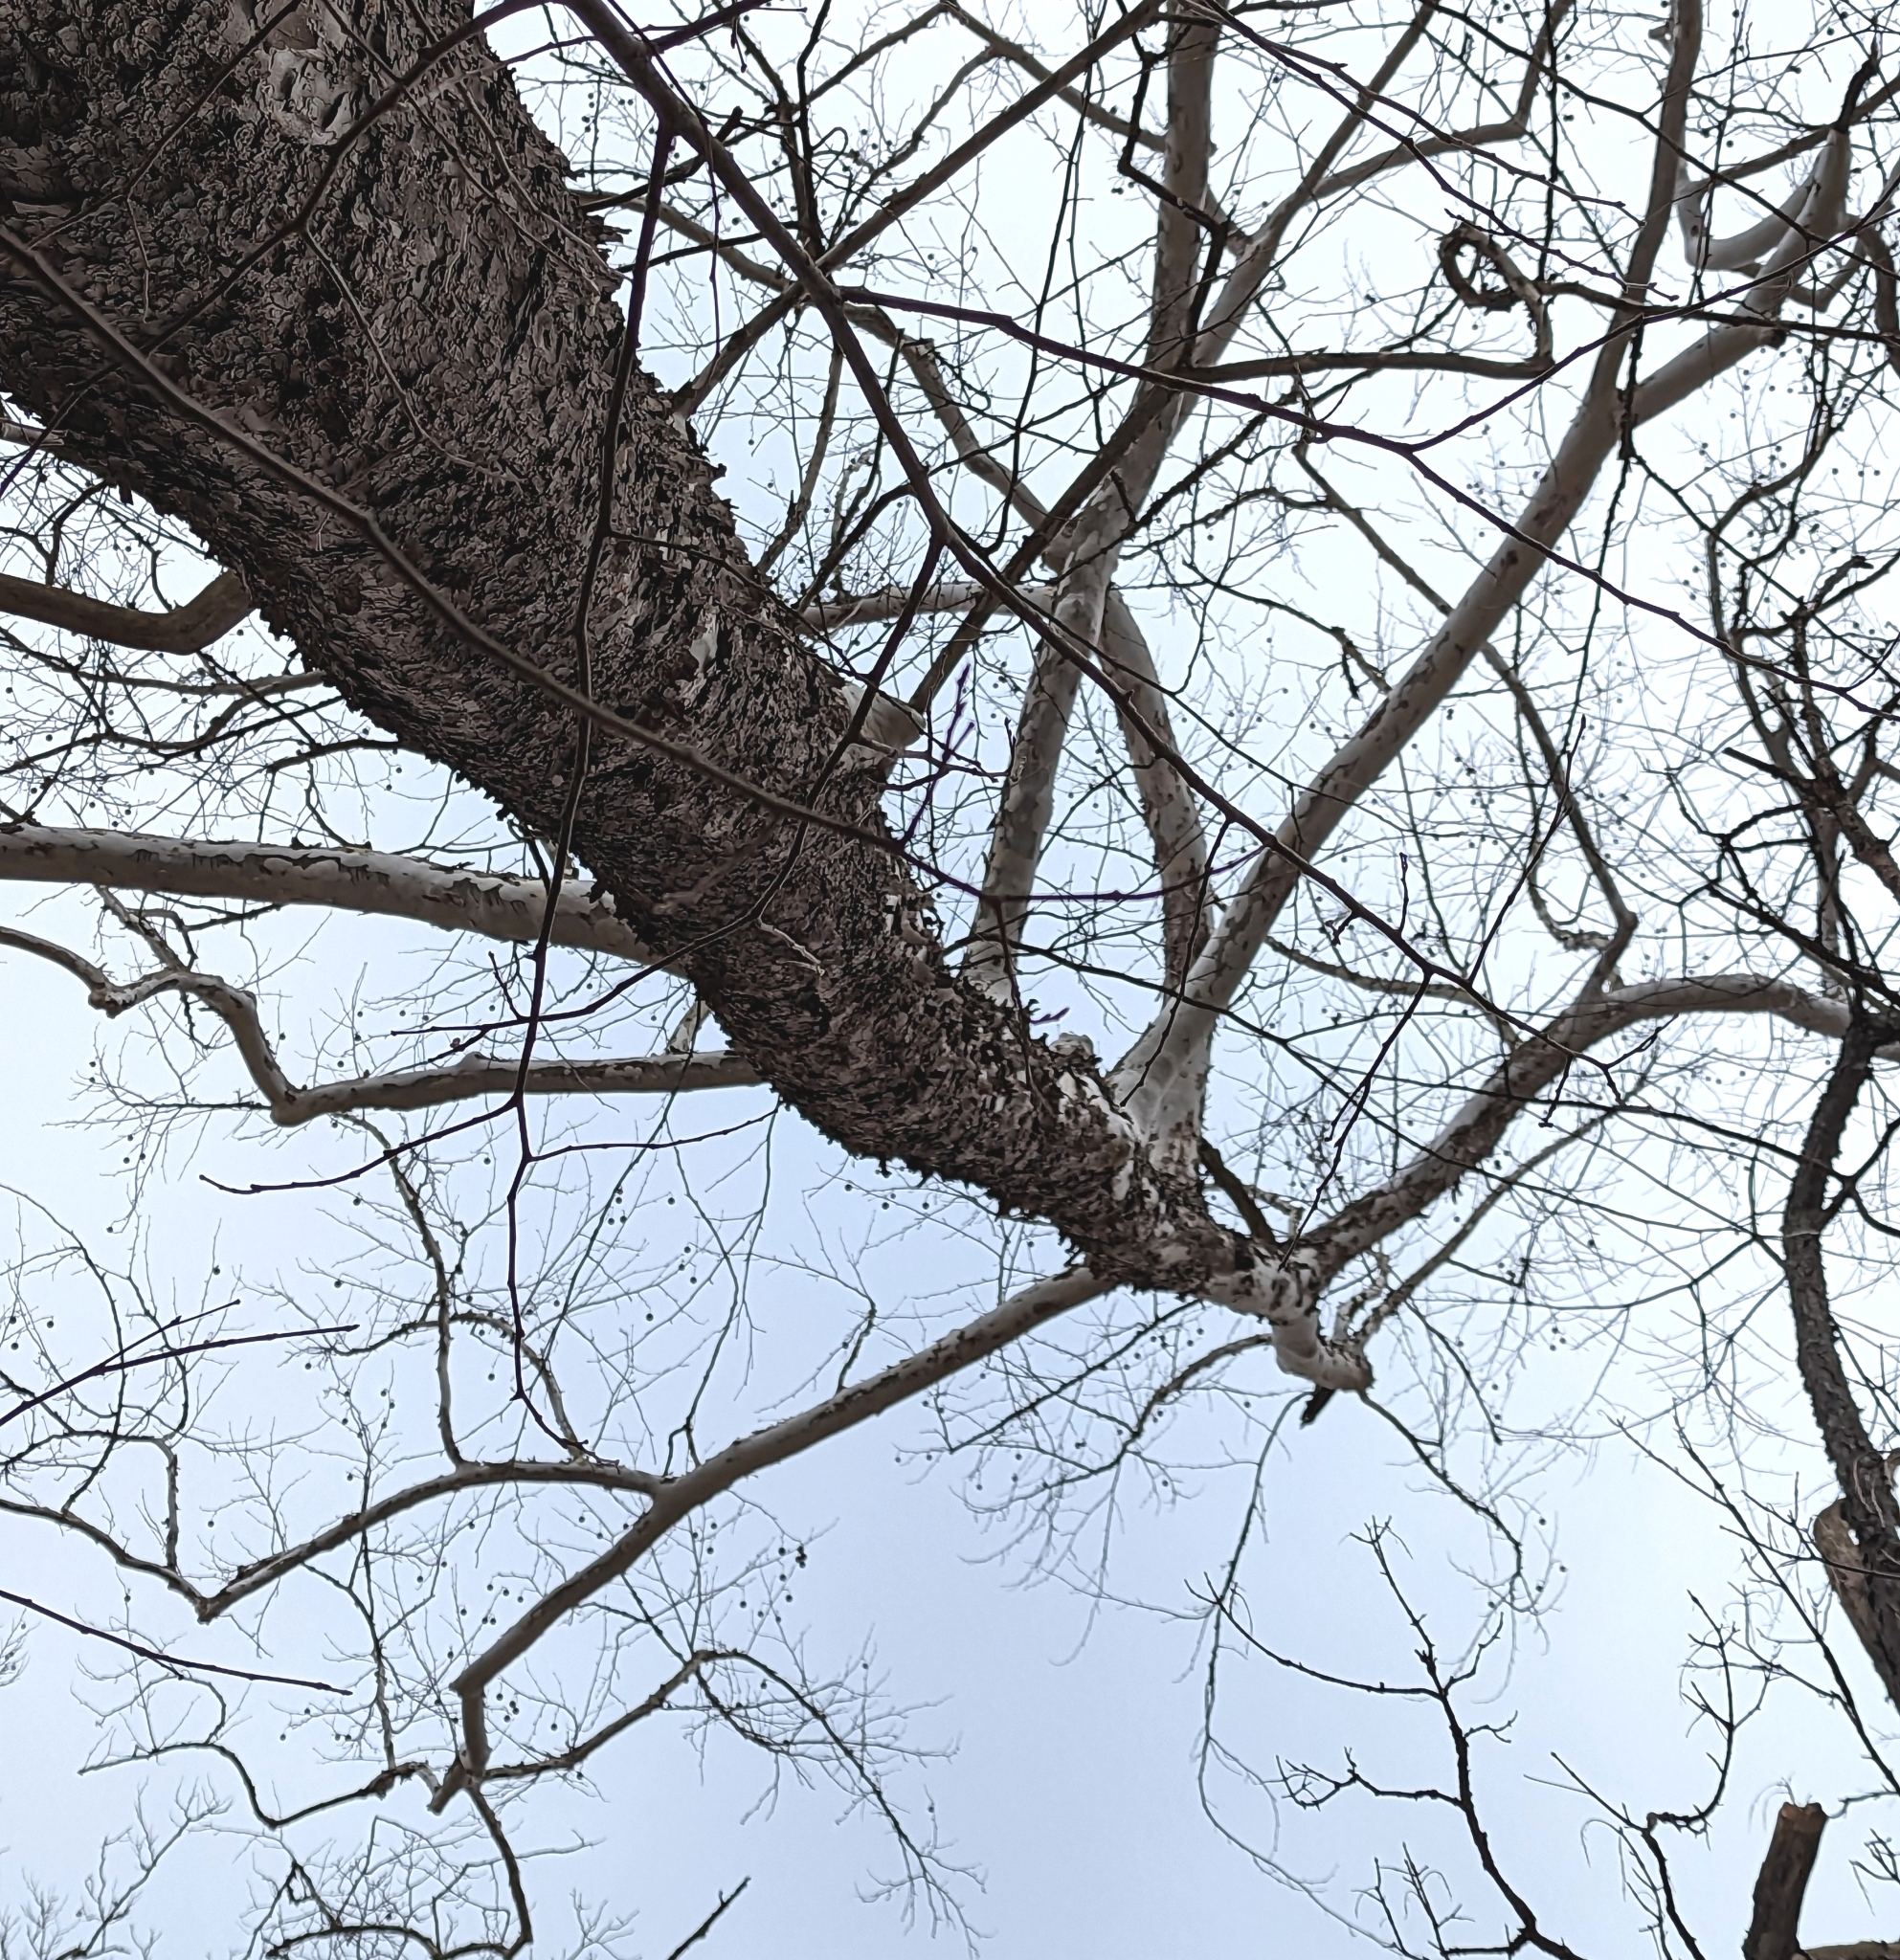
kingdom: Plantae
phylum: Tracheophyta
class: Magnoliopsida
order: Proteales
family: Platanaceae
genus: Platanus
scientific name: Platanus occidentalis
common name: American sycamore
